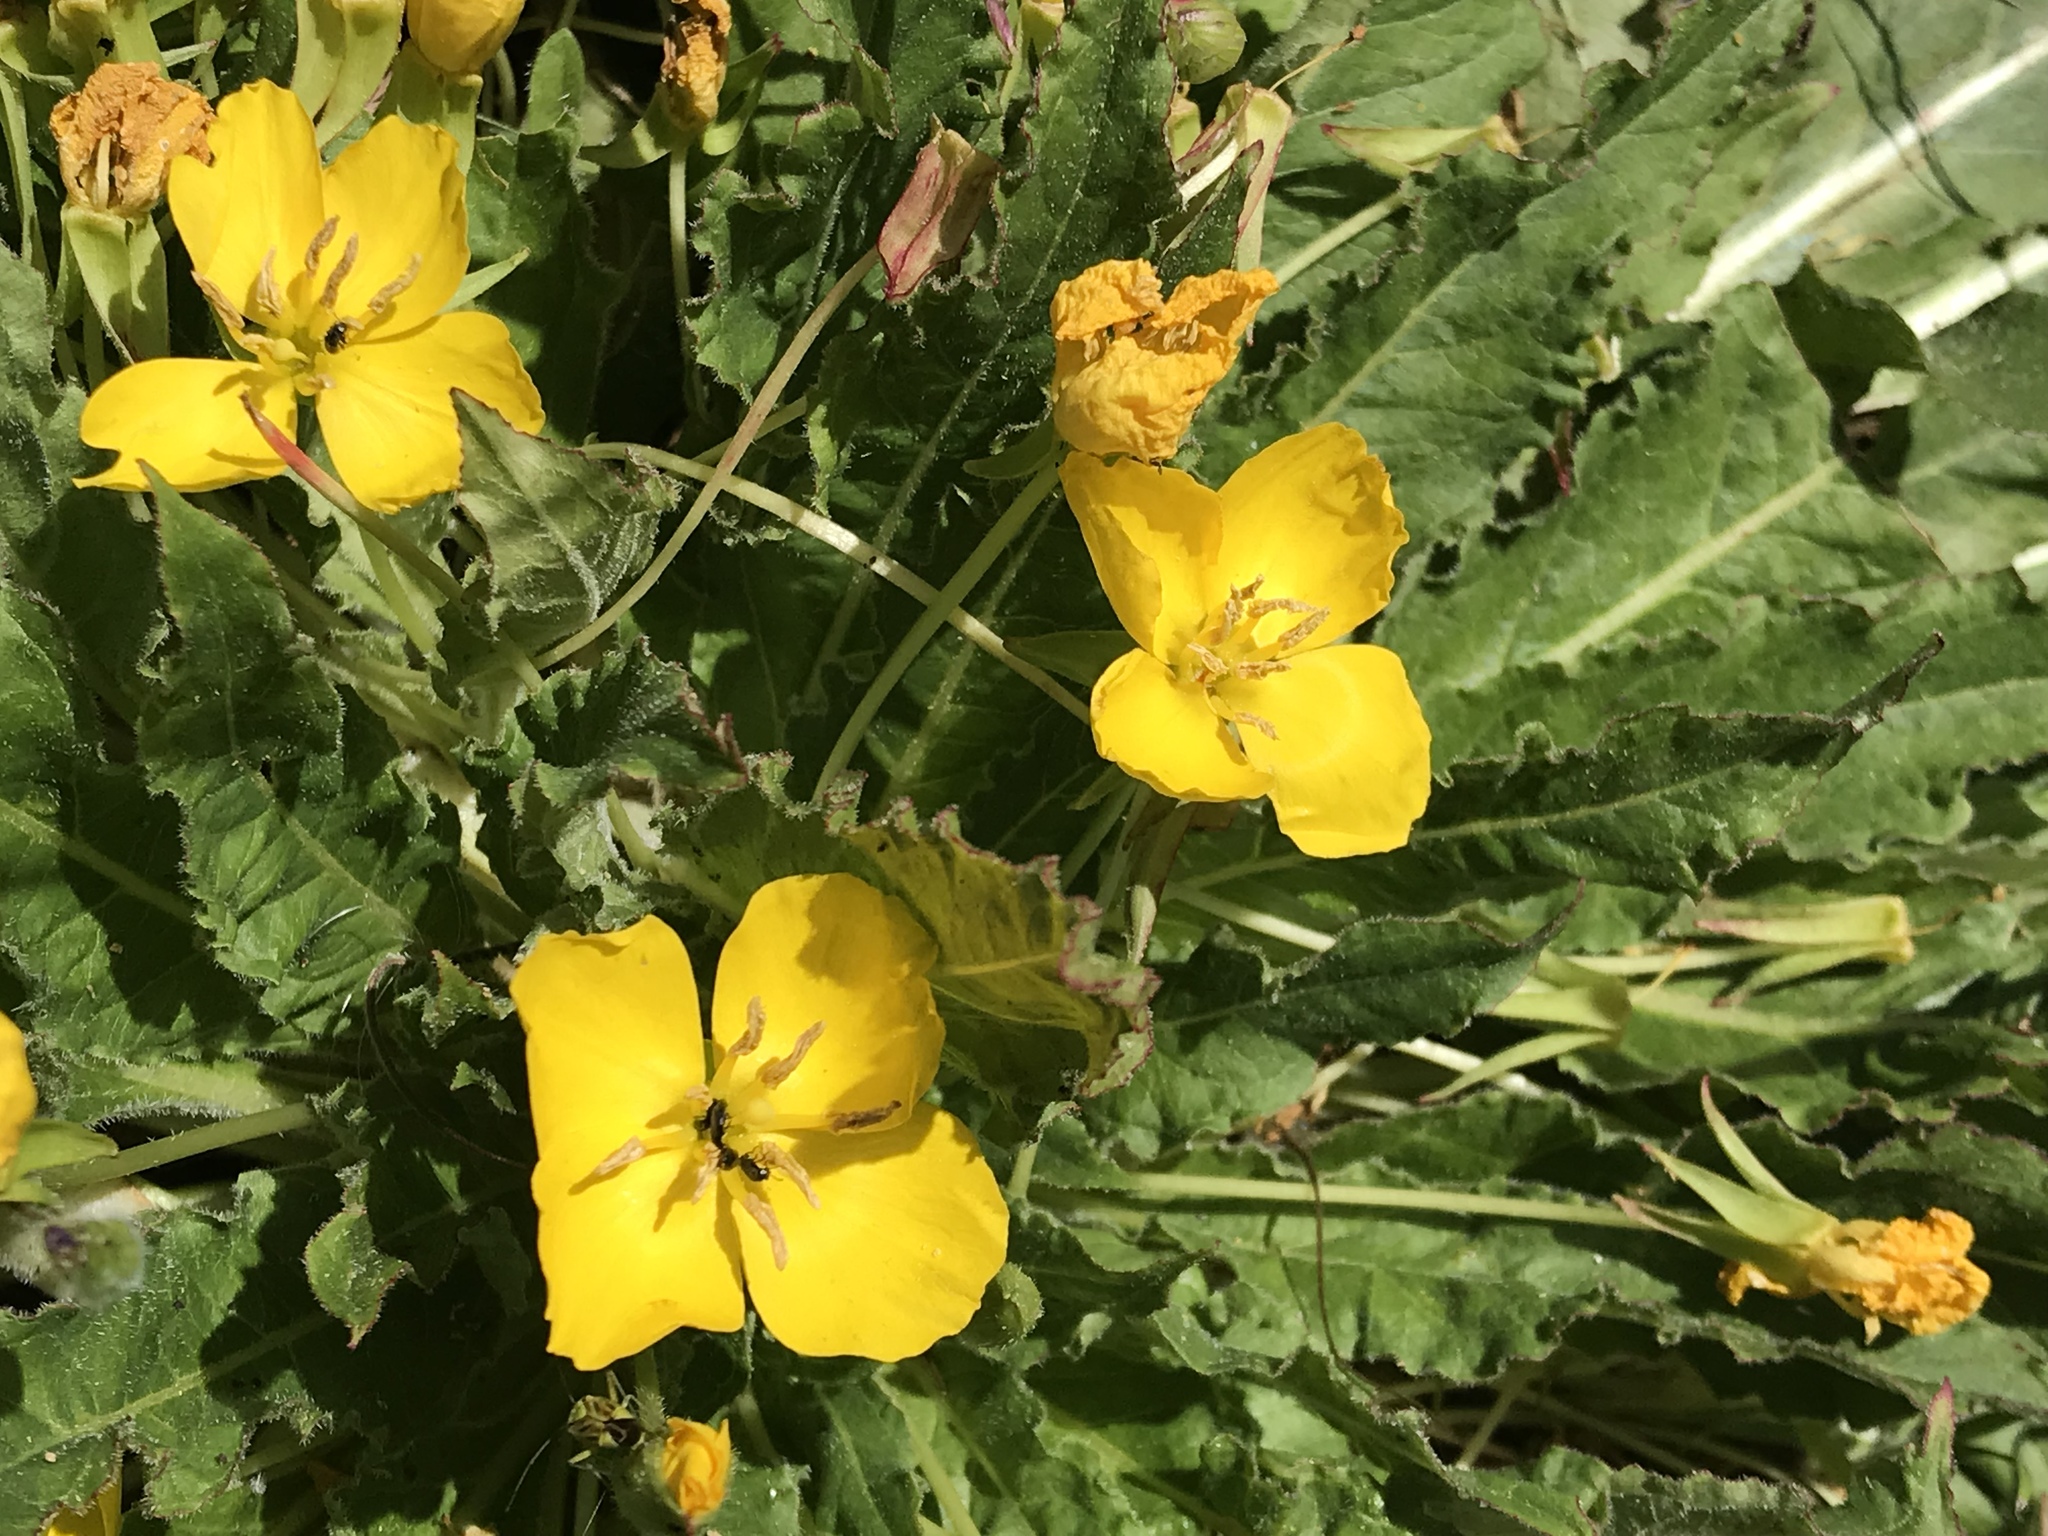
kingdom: Plantae
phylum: Tracheophyta
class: Magnoliopsida
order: Myrtales
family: Onagraceae
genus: Taraxia
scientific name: Taraxia ovata
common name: Goldeneggs
